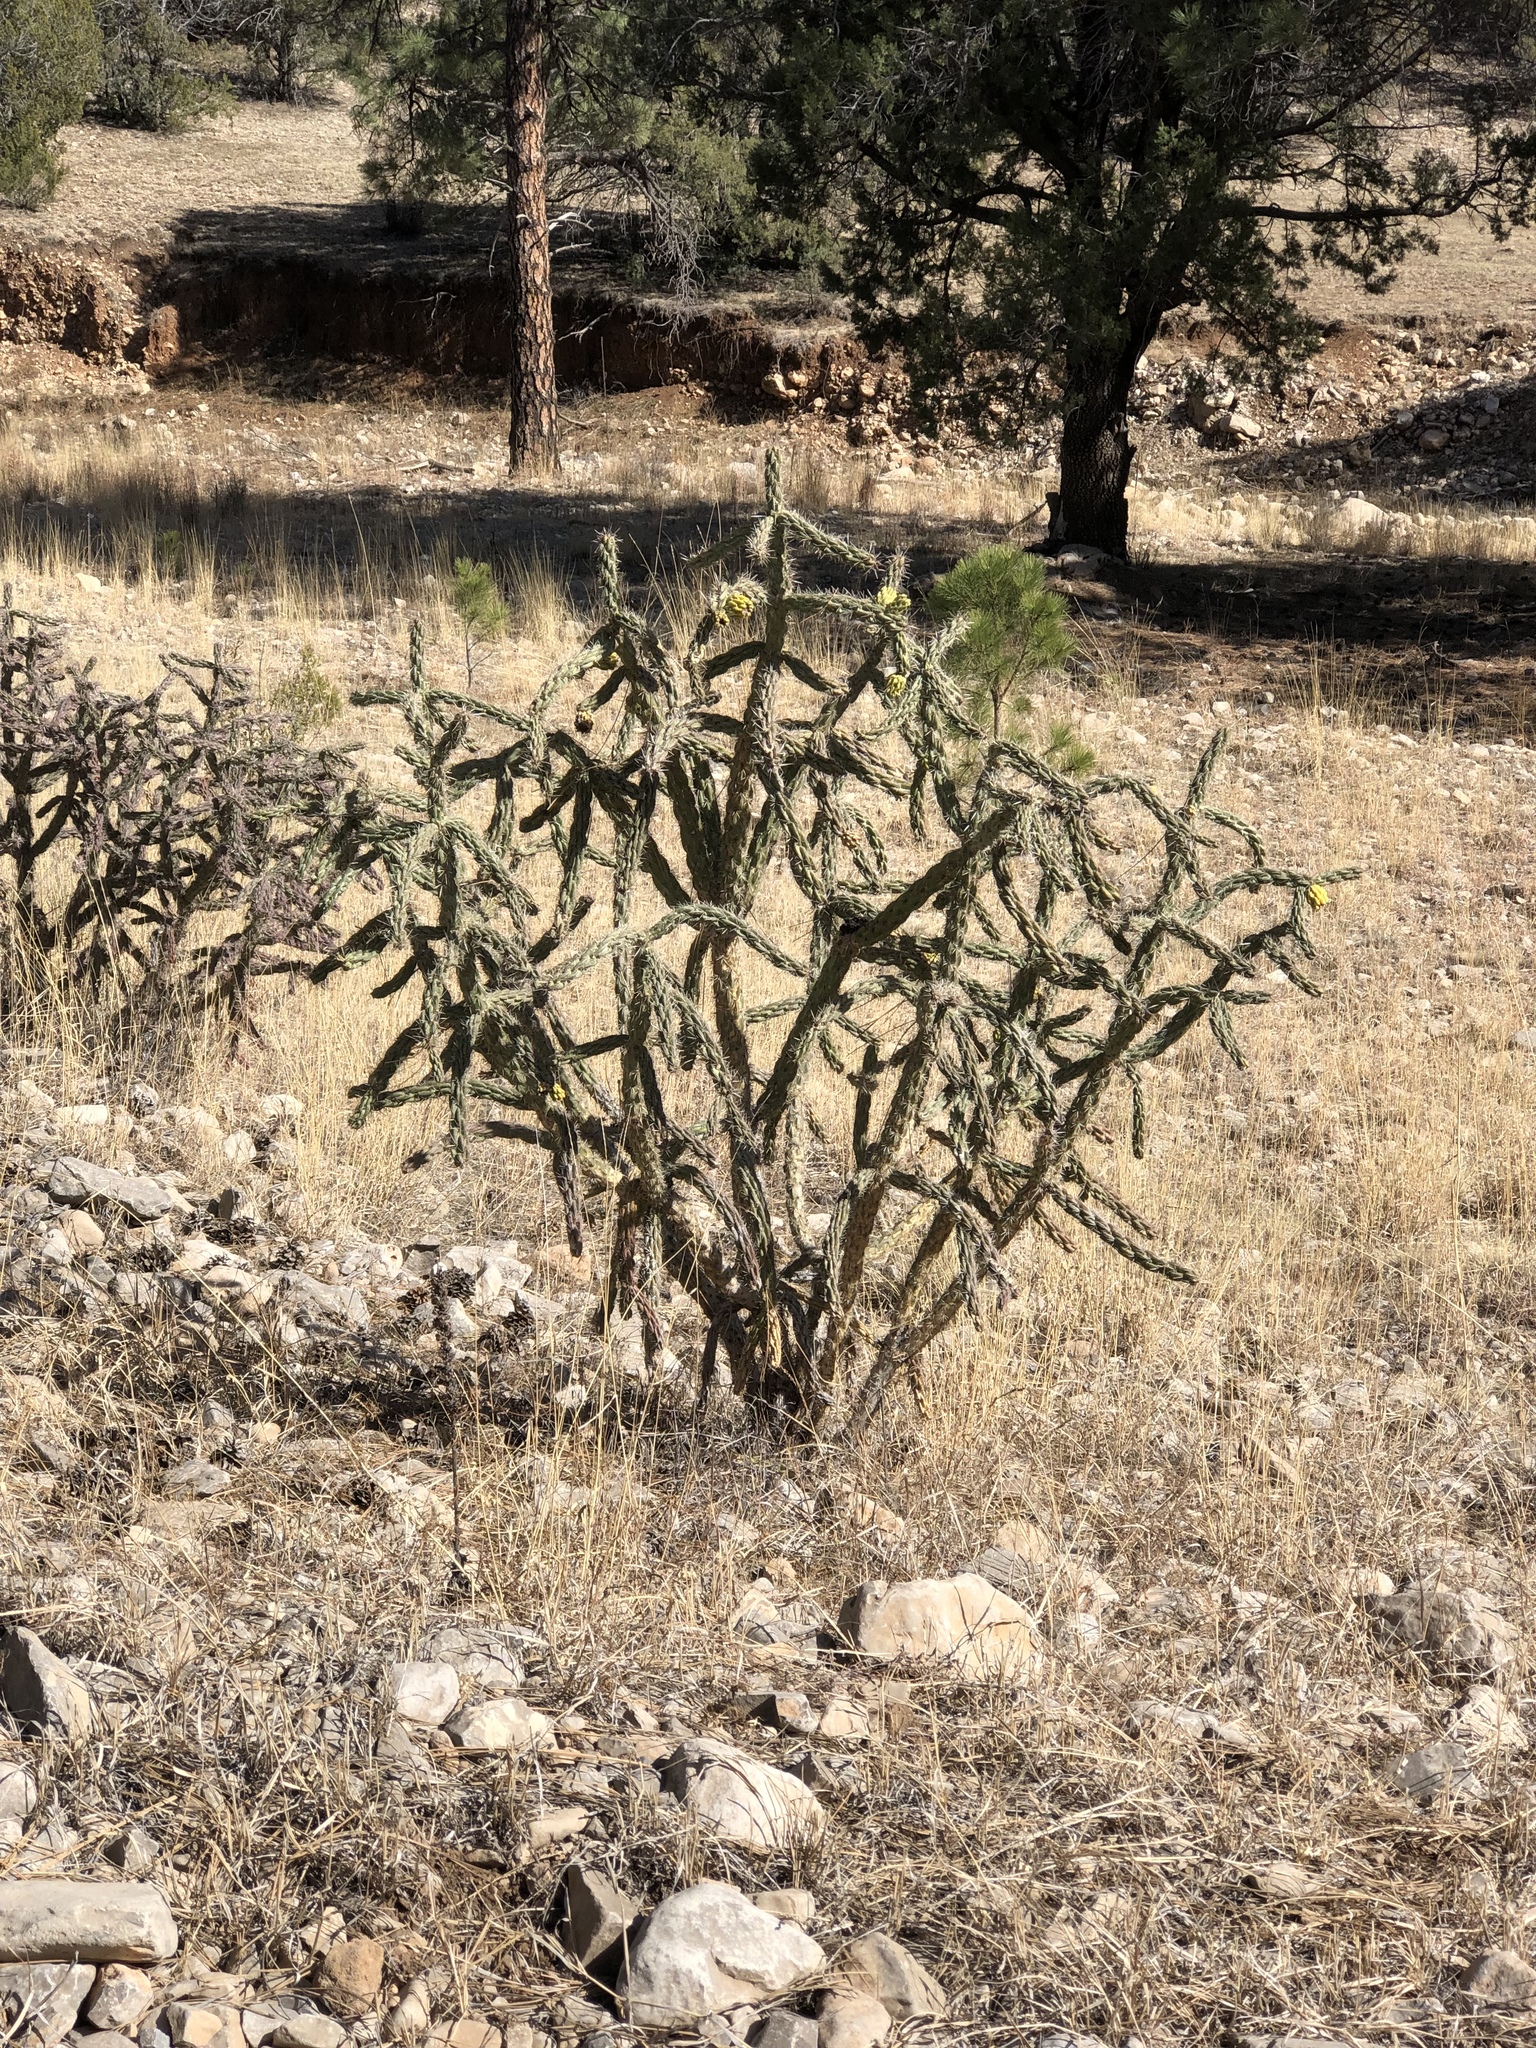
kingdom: Plantae
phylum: Tracheophyta
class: Magnoliopsida
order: Caryophyllales
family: Cactaceae
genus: Cylindropuntia
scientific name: Cylindropuntia imbricata
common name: Candelabrum cactus
